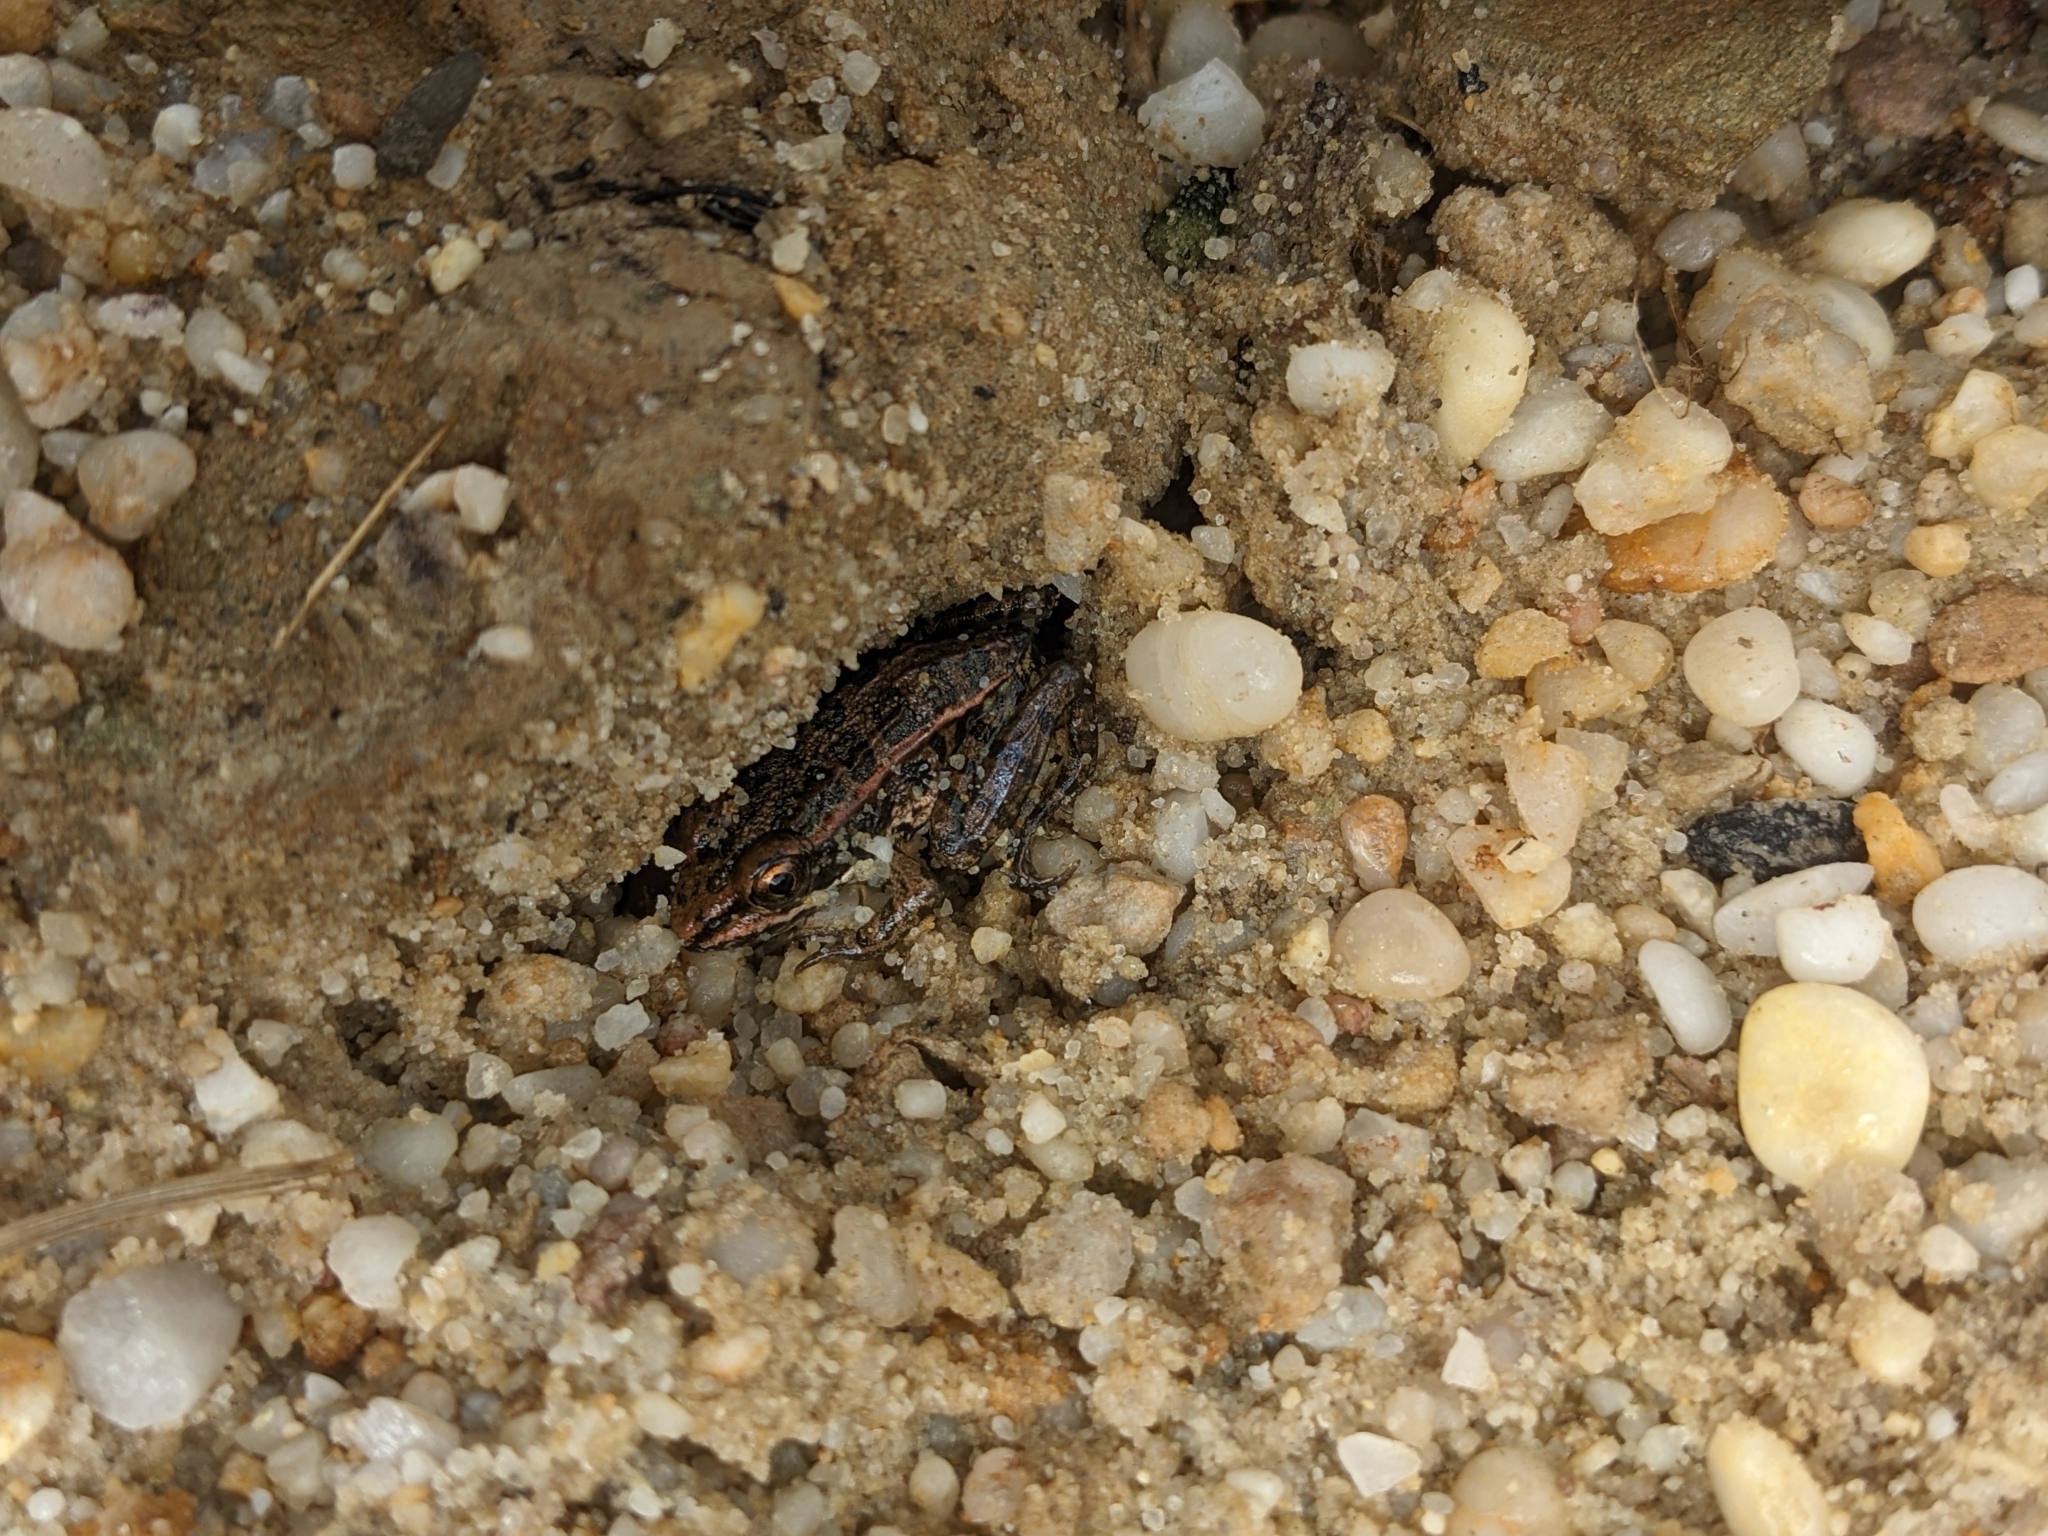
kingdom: Animalia
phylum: Chordata
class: Amphibia
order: Anura
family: Ranidae
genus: Lithobates
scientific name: Lithobates palustris
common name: Pickerel frog
